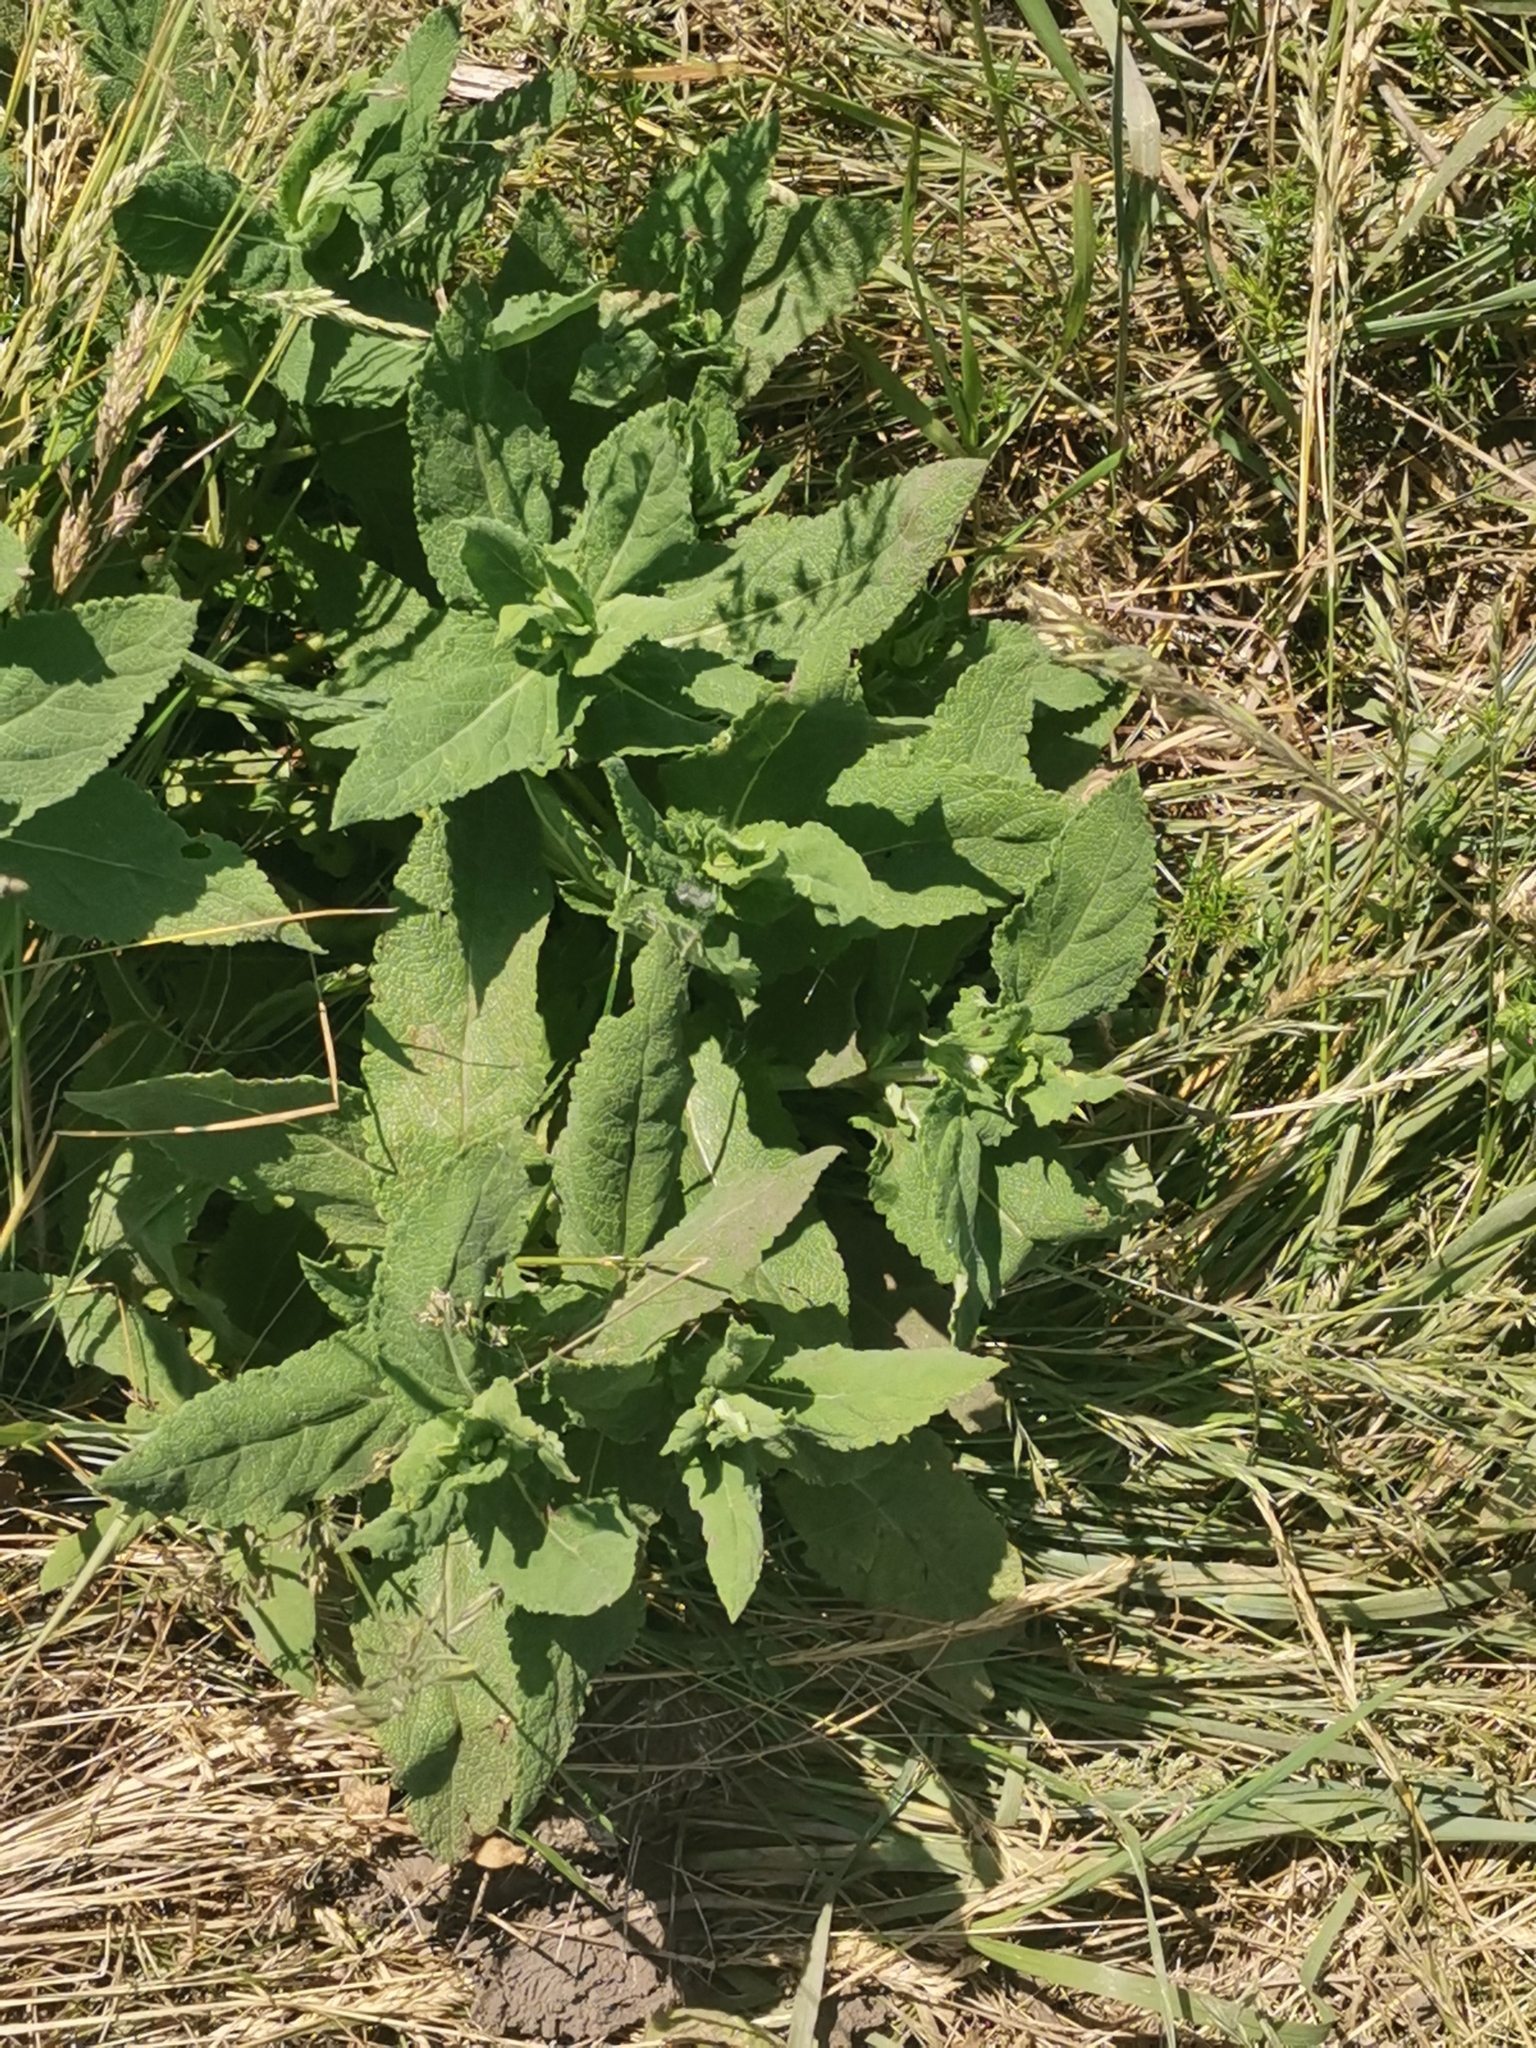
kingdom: Plantae
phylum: Tracheophyta
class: Magnoliopsida
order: Lamiales
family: Lamiaceae
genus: Salvia
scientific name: Salvia nemorosa
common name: Balkan clary
